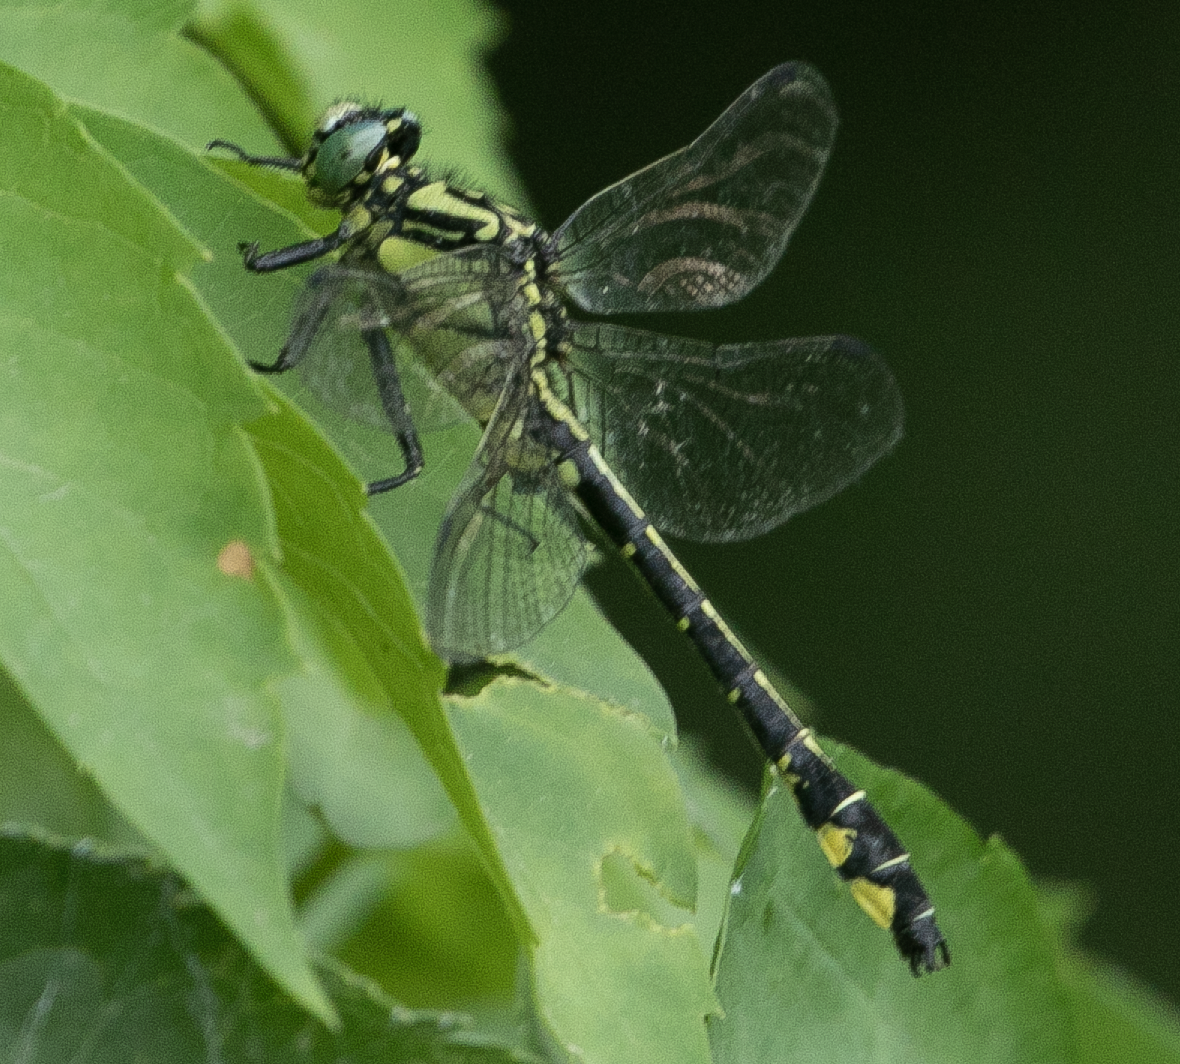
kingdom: Animalia
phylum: Arthropoda
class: Insecta
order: Odonata
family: Gomphidae
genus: Gomphus
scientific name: Gomphus vulgatissimus
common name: Club-tailed dragonfly
